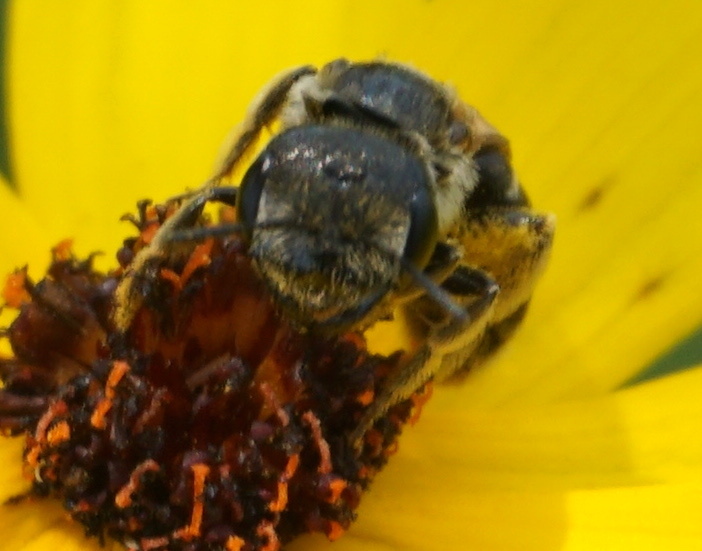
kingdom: Animalia
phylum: Arthropoda
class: Insecta
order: Hymenoptera
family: Halictidae
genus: Halictus
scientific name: Halictus poeyi
